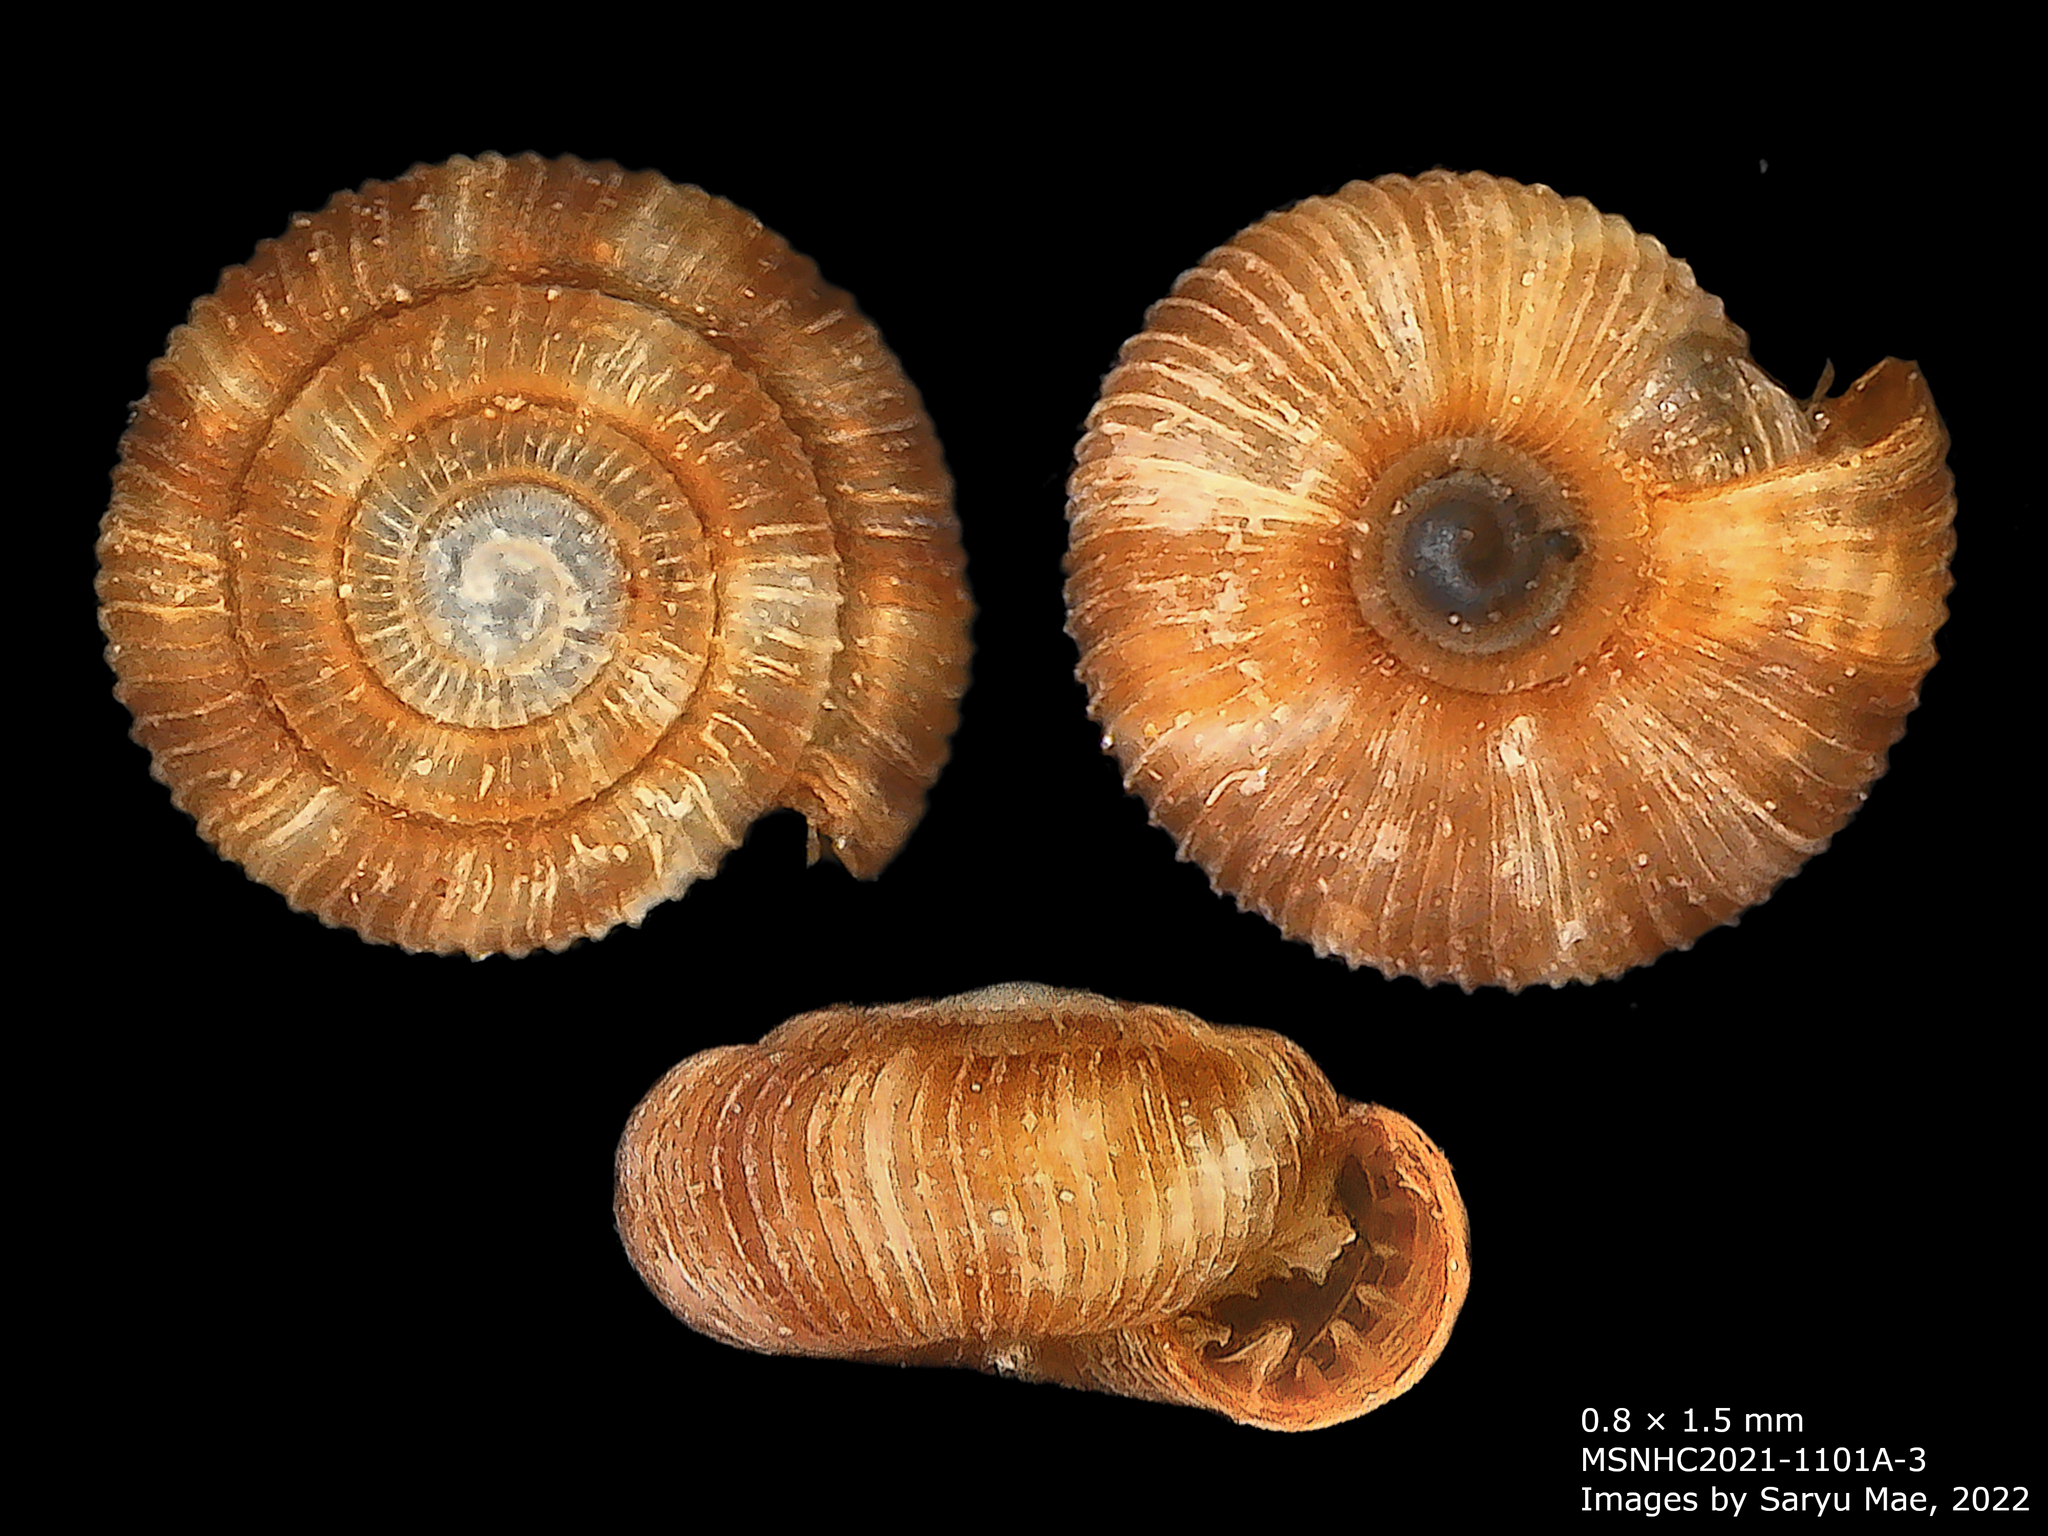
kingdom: Animalia
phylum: Mollusca
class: Gastropoda
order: Stylommatophora
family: Charopidae
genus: Huonodon
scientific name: Huonodon hectori
